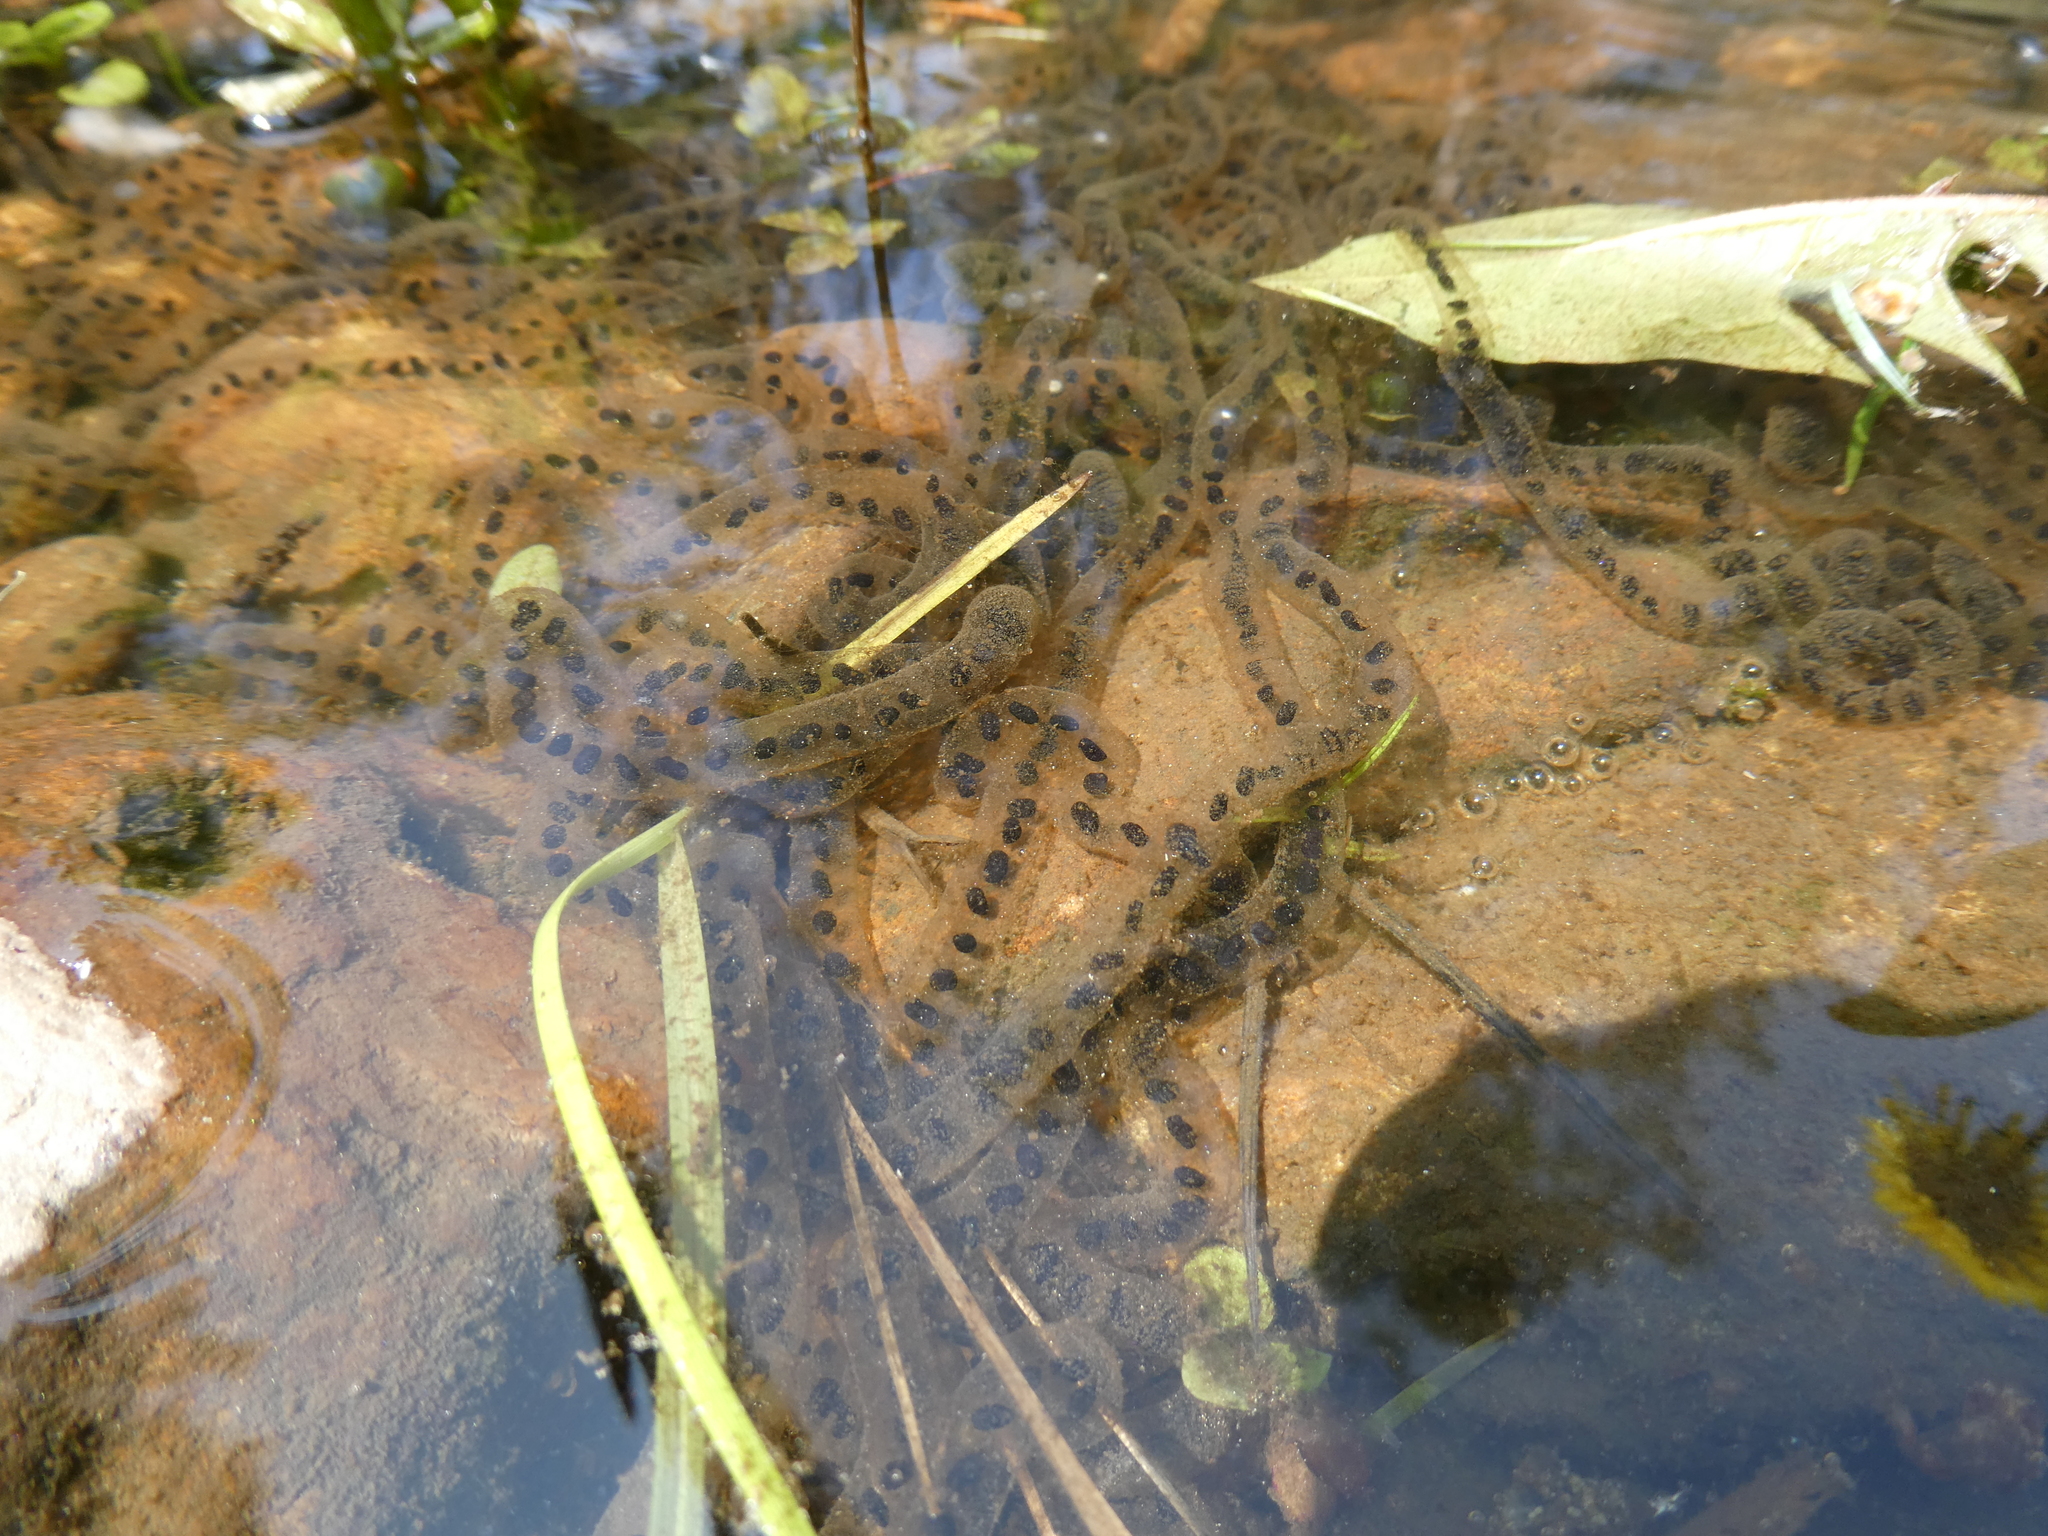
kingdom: Animalia
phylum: Chordata
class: Amphibia
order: Anura
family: Bufonidae
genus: Anaxyrus
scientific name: Anaxyrus americanus
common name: American toad
